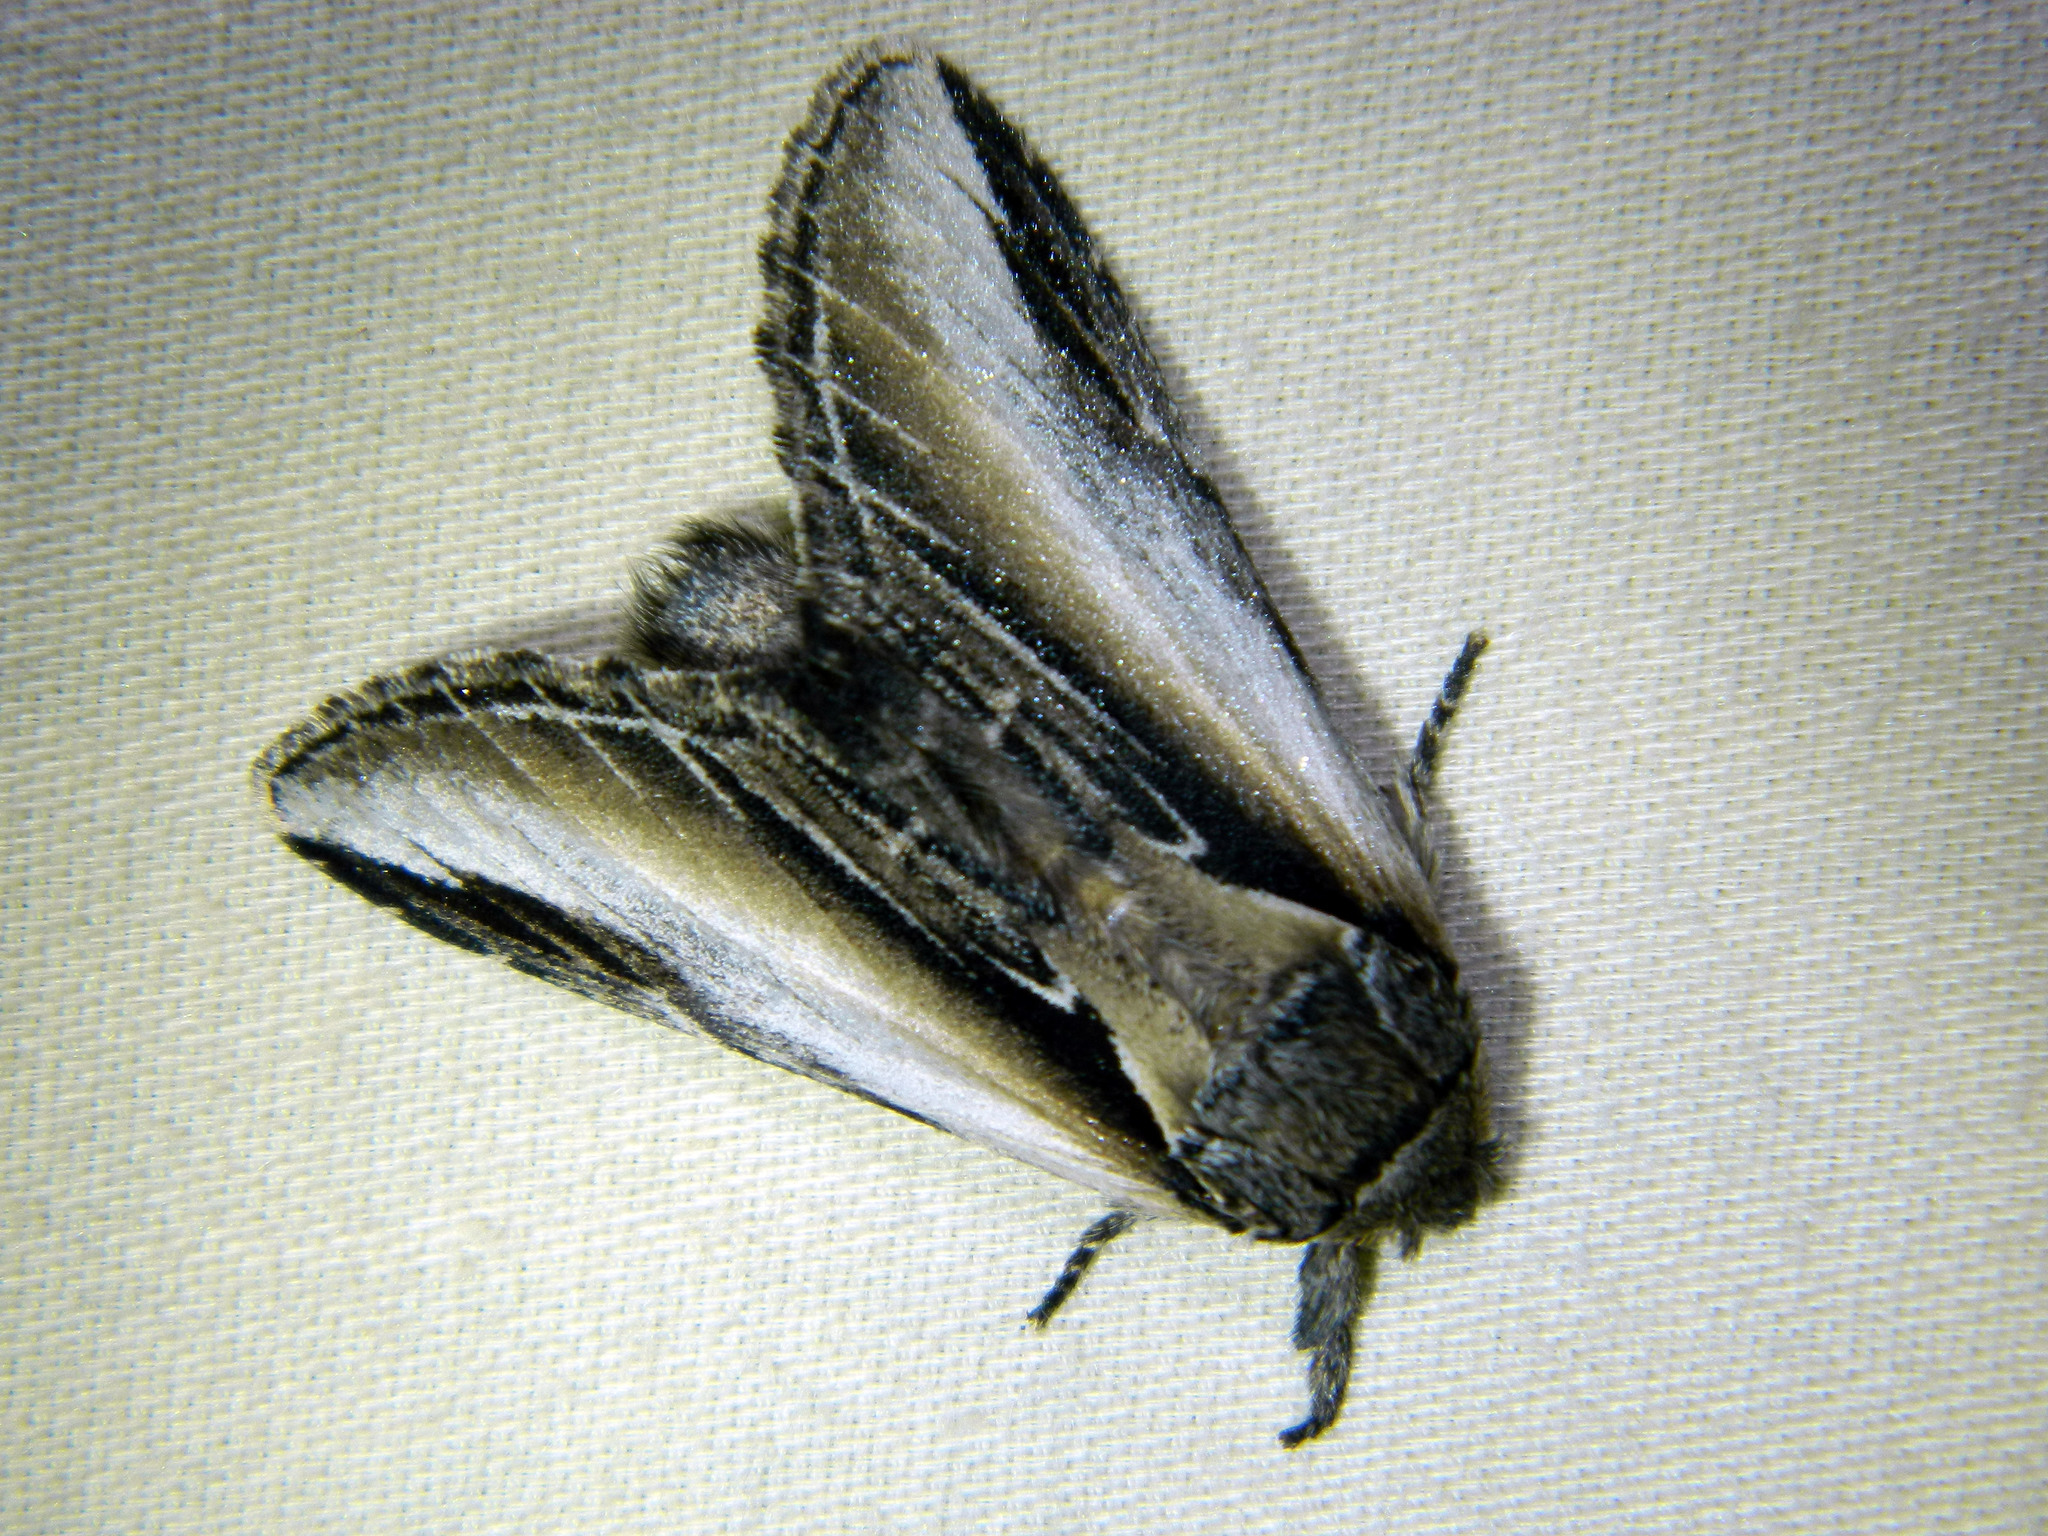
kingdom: Animalia
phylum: Arthropoda
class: Insecta
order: Lepidoptera
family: Notodontidae
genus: Pheosia
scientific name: Pheosia rimosa
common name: Black-rimmed prominent
